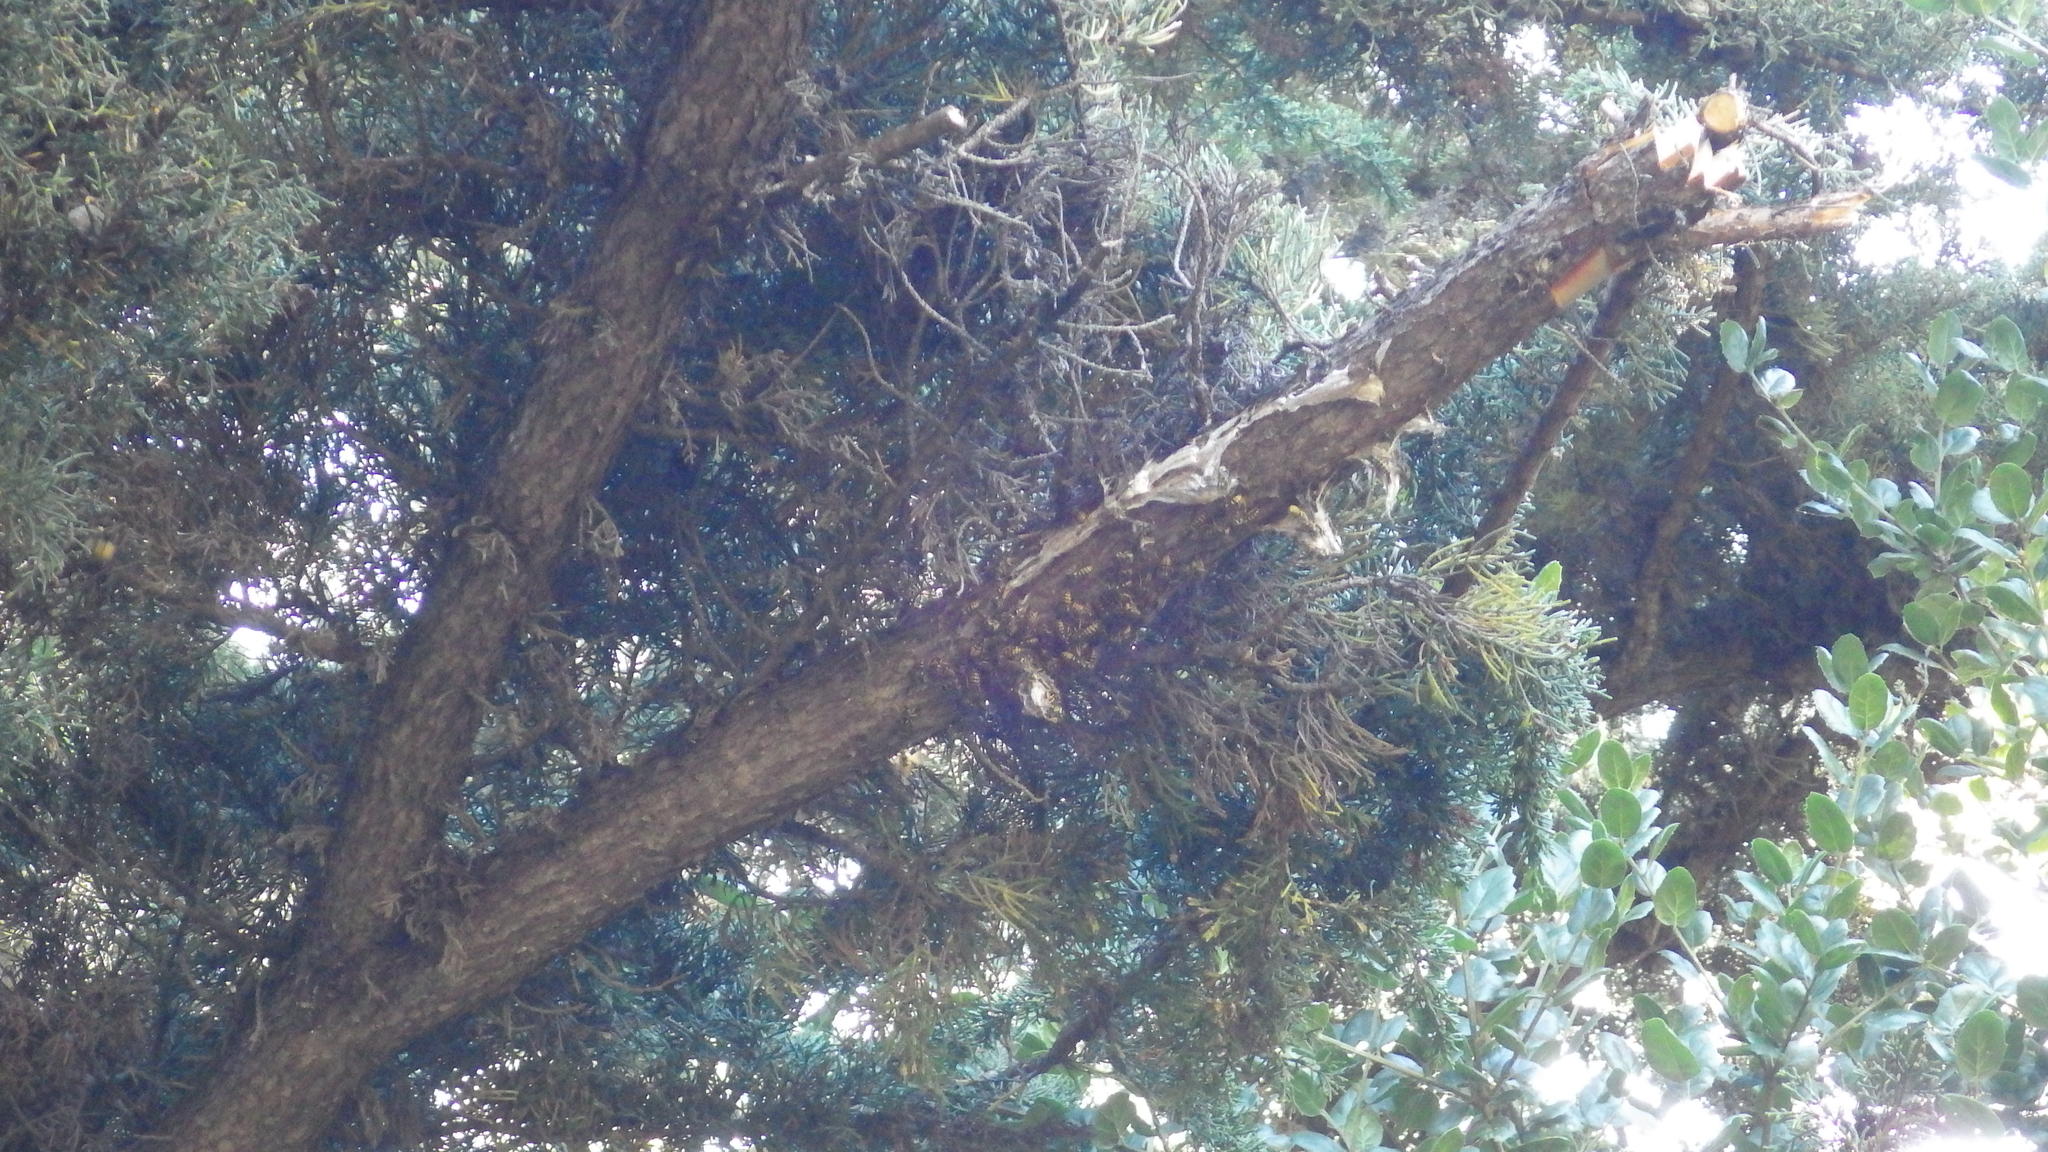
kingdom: Animalia
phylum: Arthropoda
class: Insecta
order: Hymenoptera
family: Vespidae
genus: Dolichovespula
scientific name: Dolichovespula
